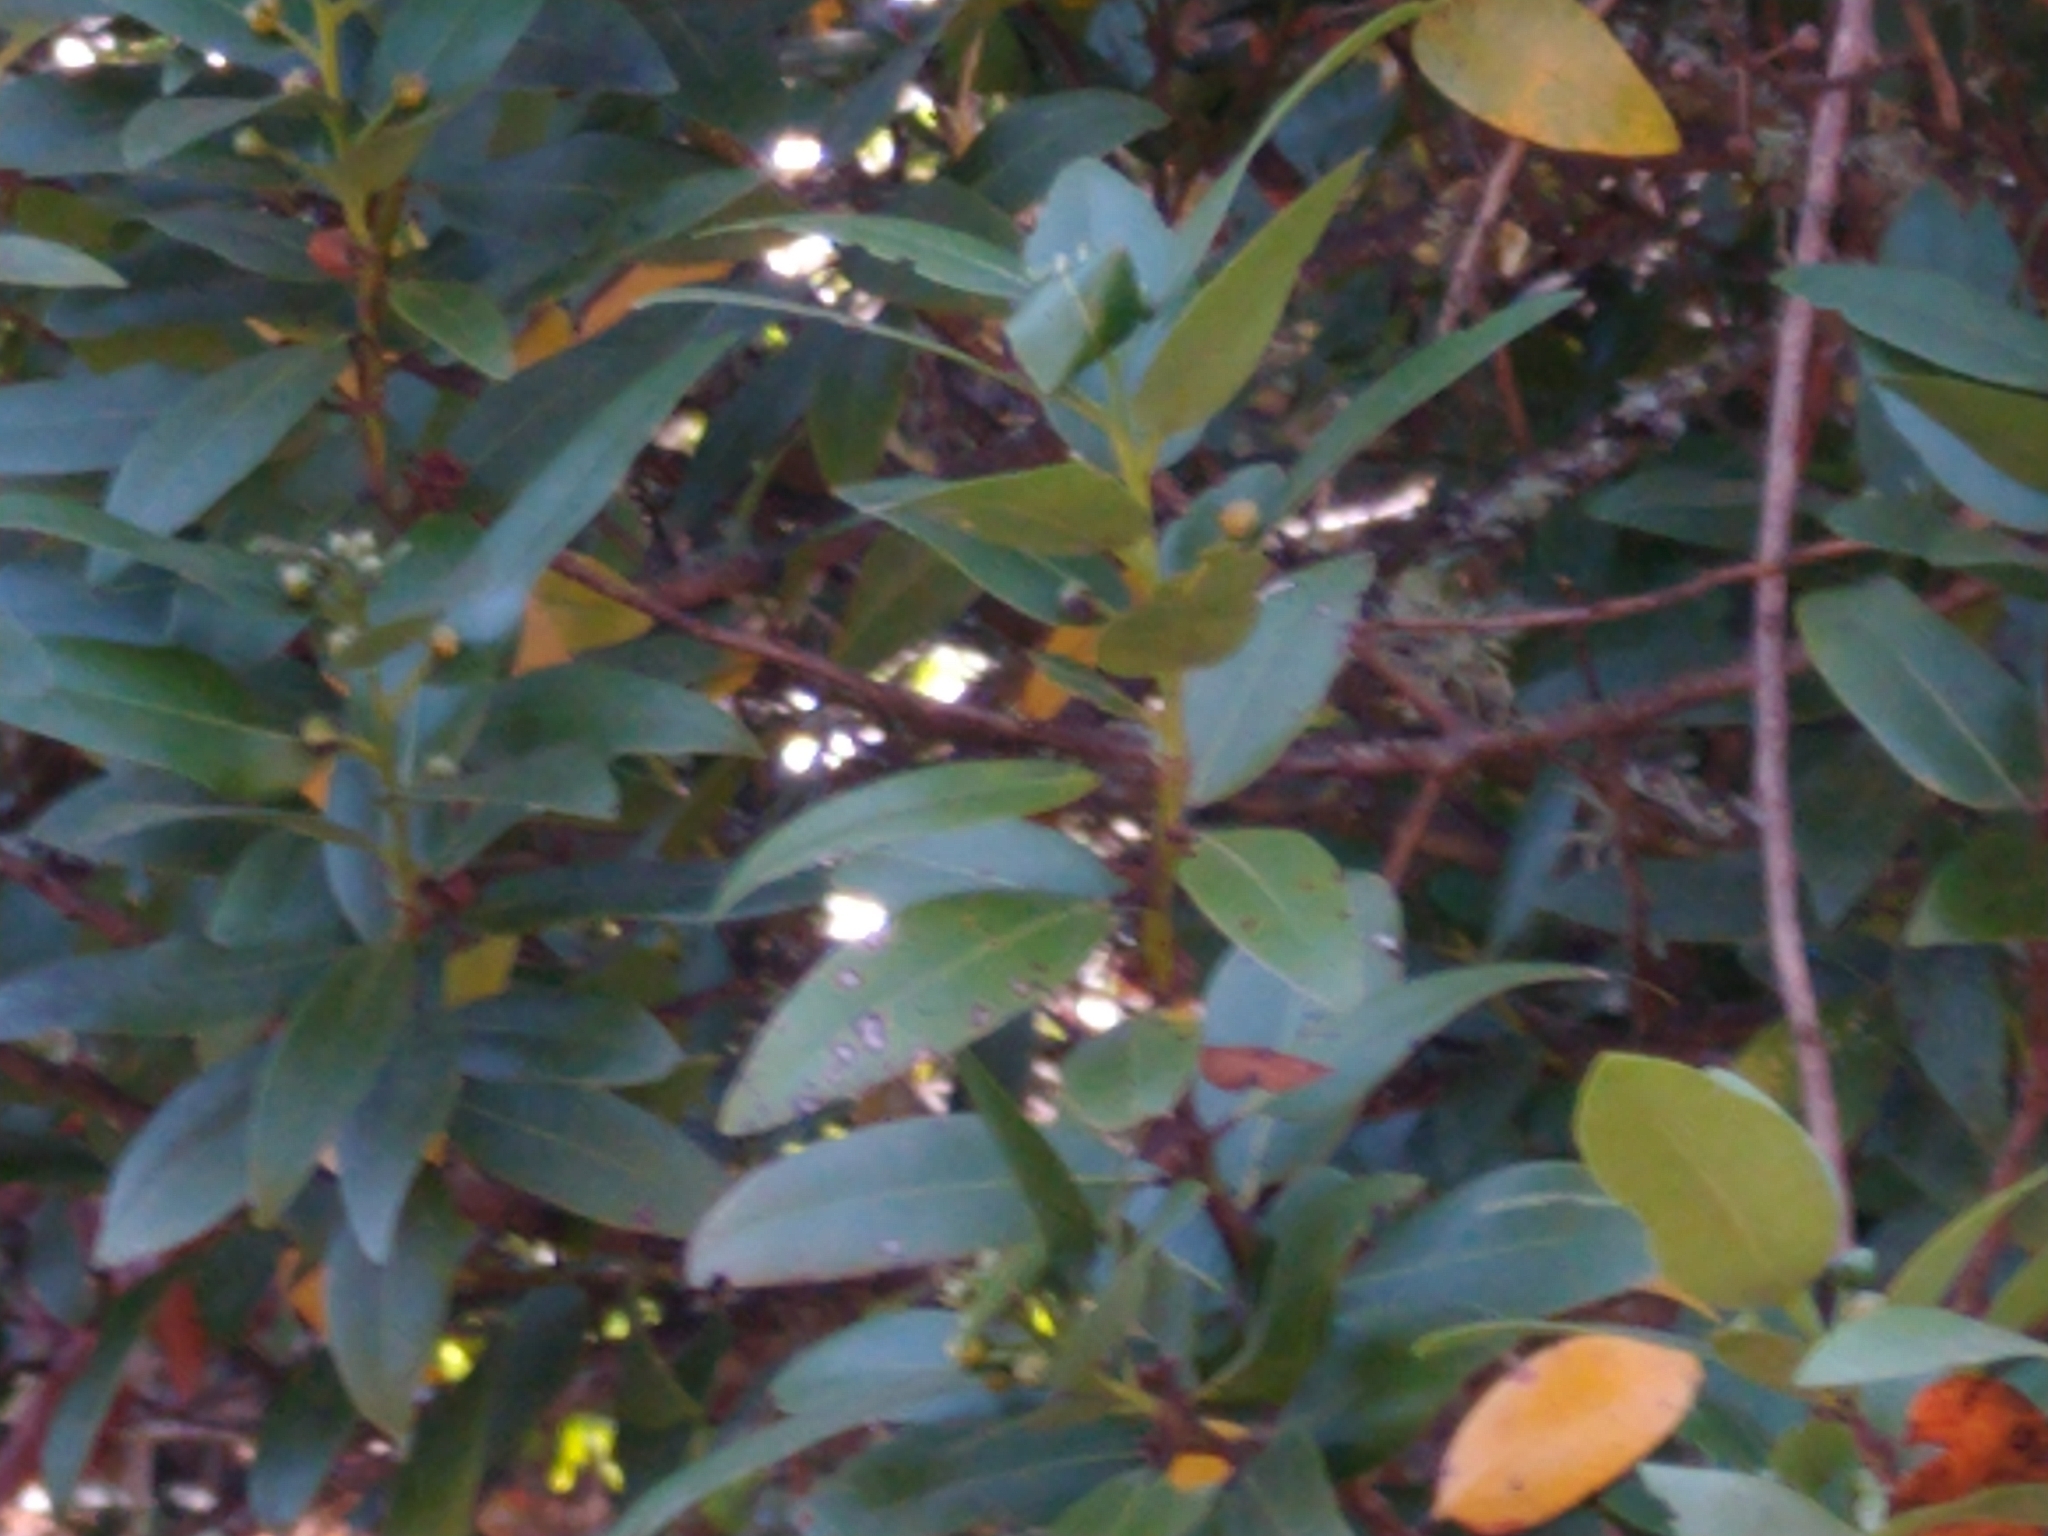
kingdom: Plantae
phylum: Tracheophyta
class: Magnoliopsida
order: Laurales
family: Lauraceae
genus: Umbellularia
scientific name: Umbellularia californica
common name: California bay
